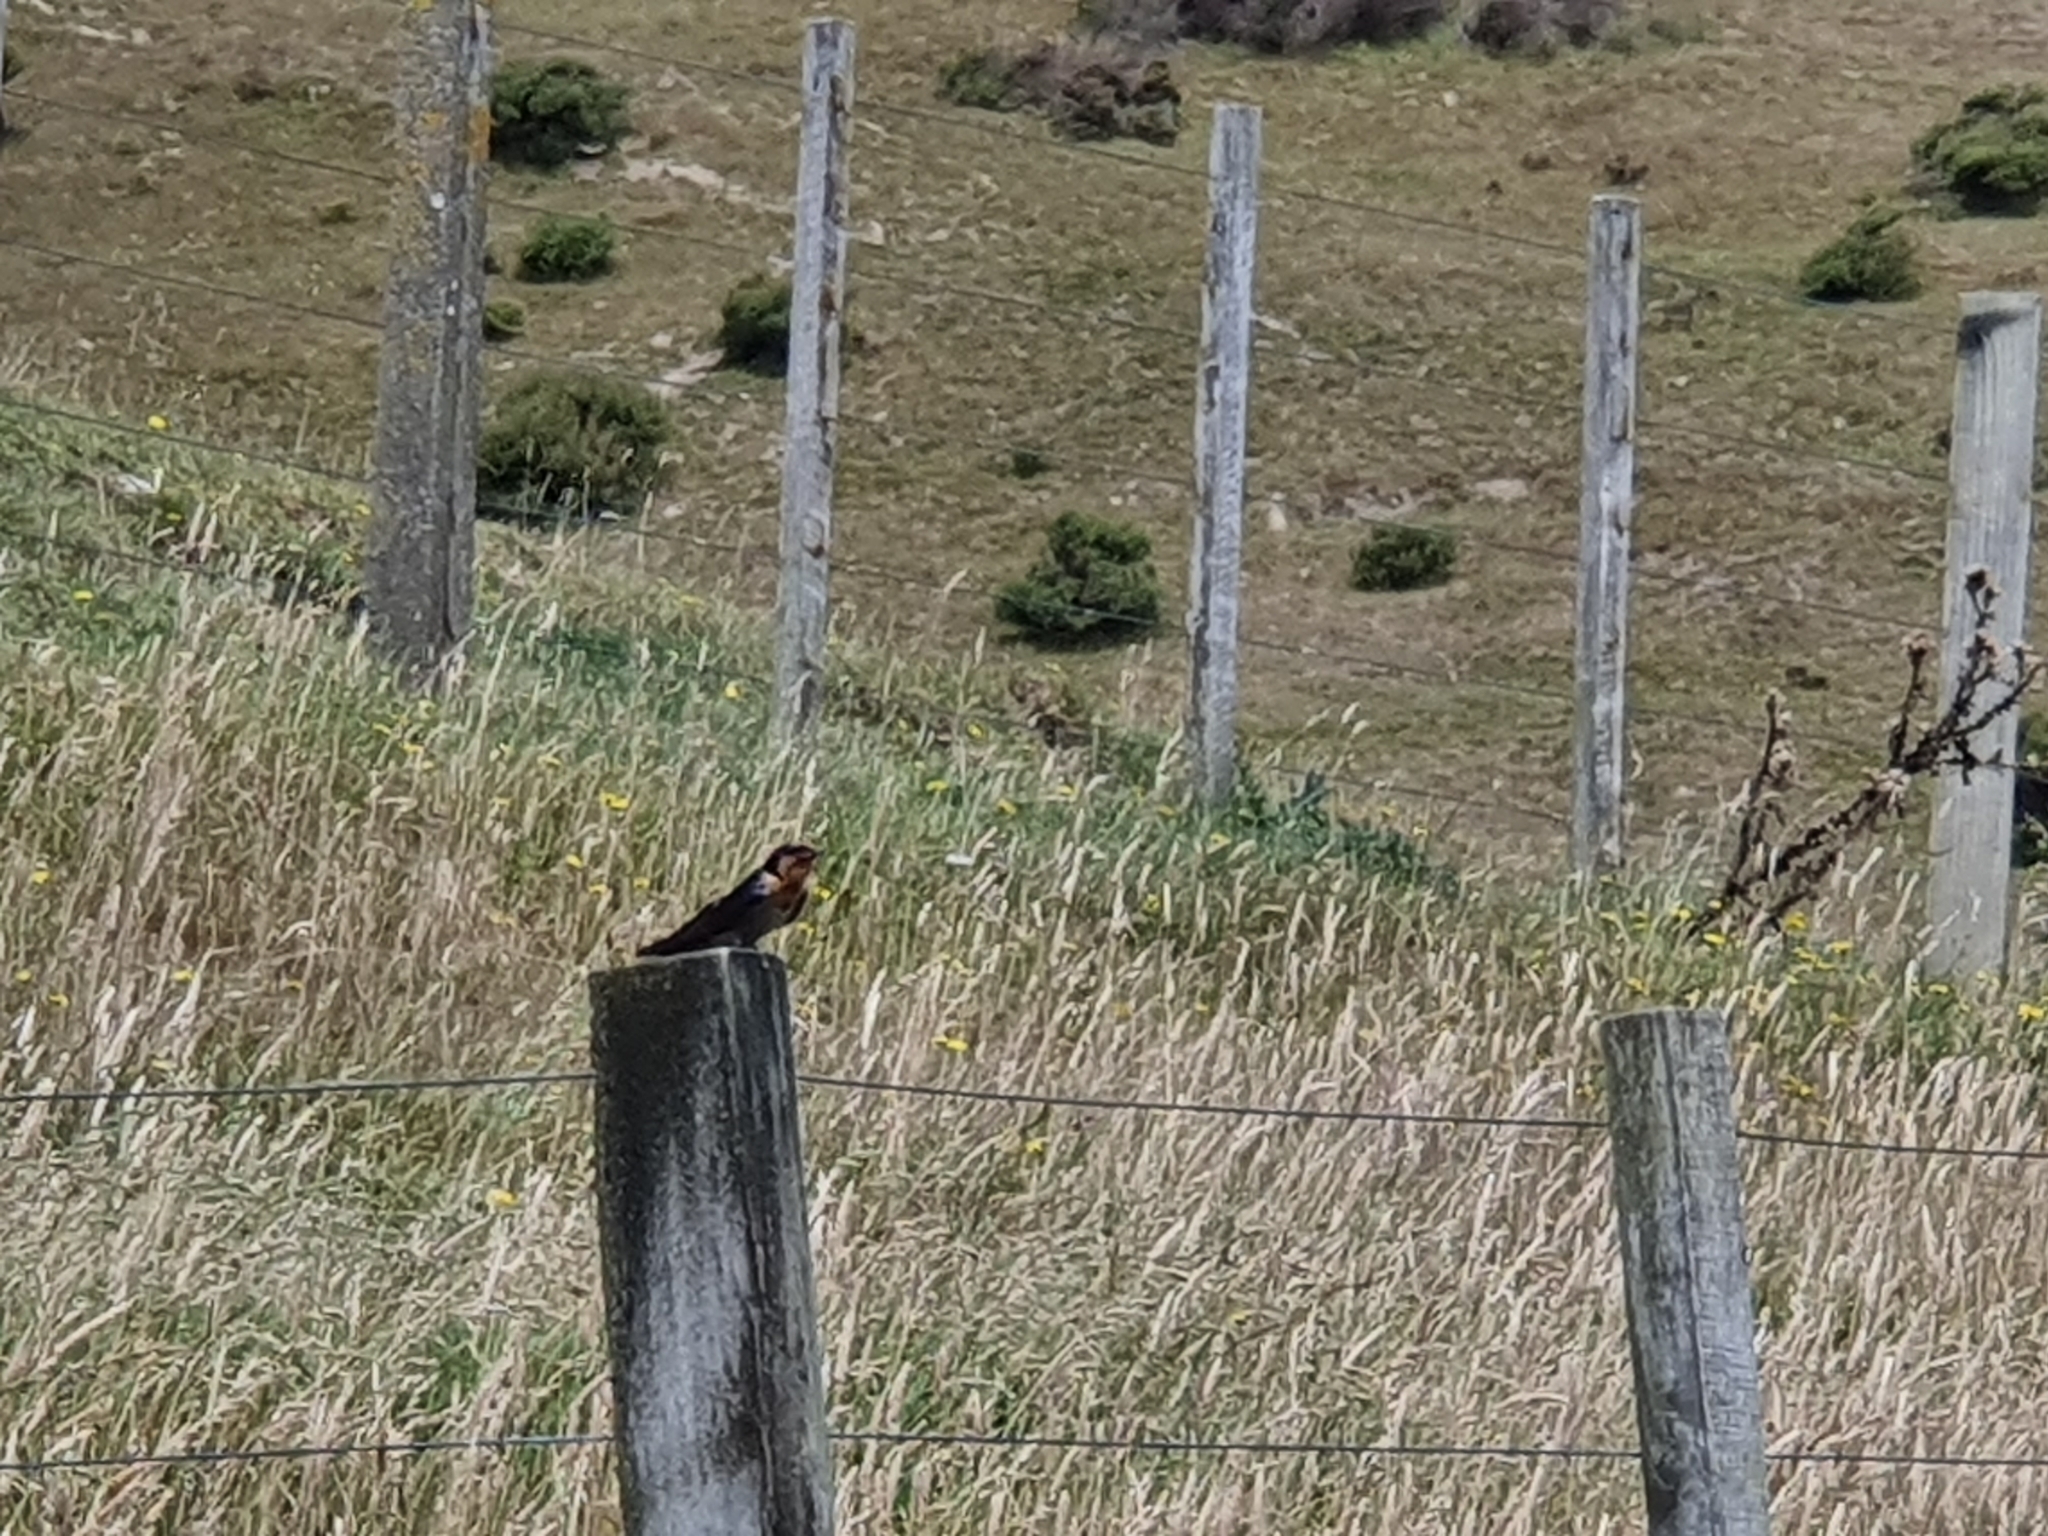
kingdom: Animalia
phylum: Chordata
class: Aves
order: Passeriformes
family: Hirundinidae
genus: Hirundo
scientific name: Hirundo neoxena
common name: Welcome swallow
